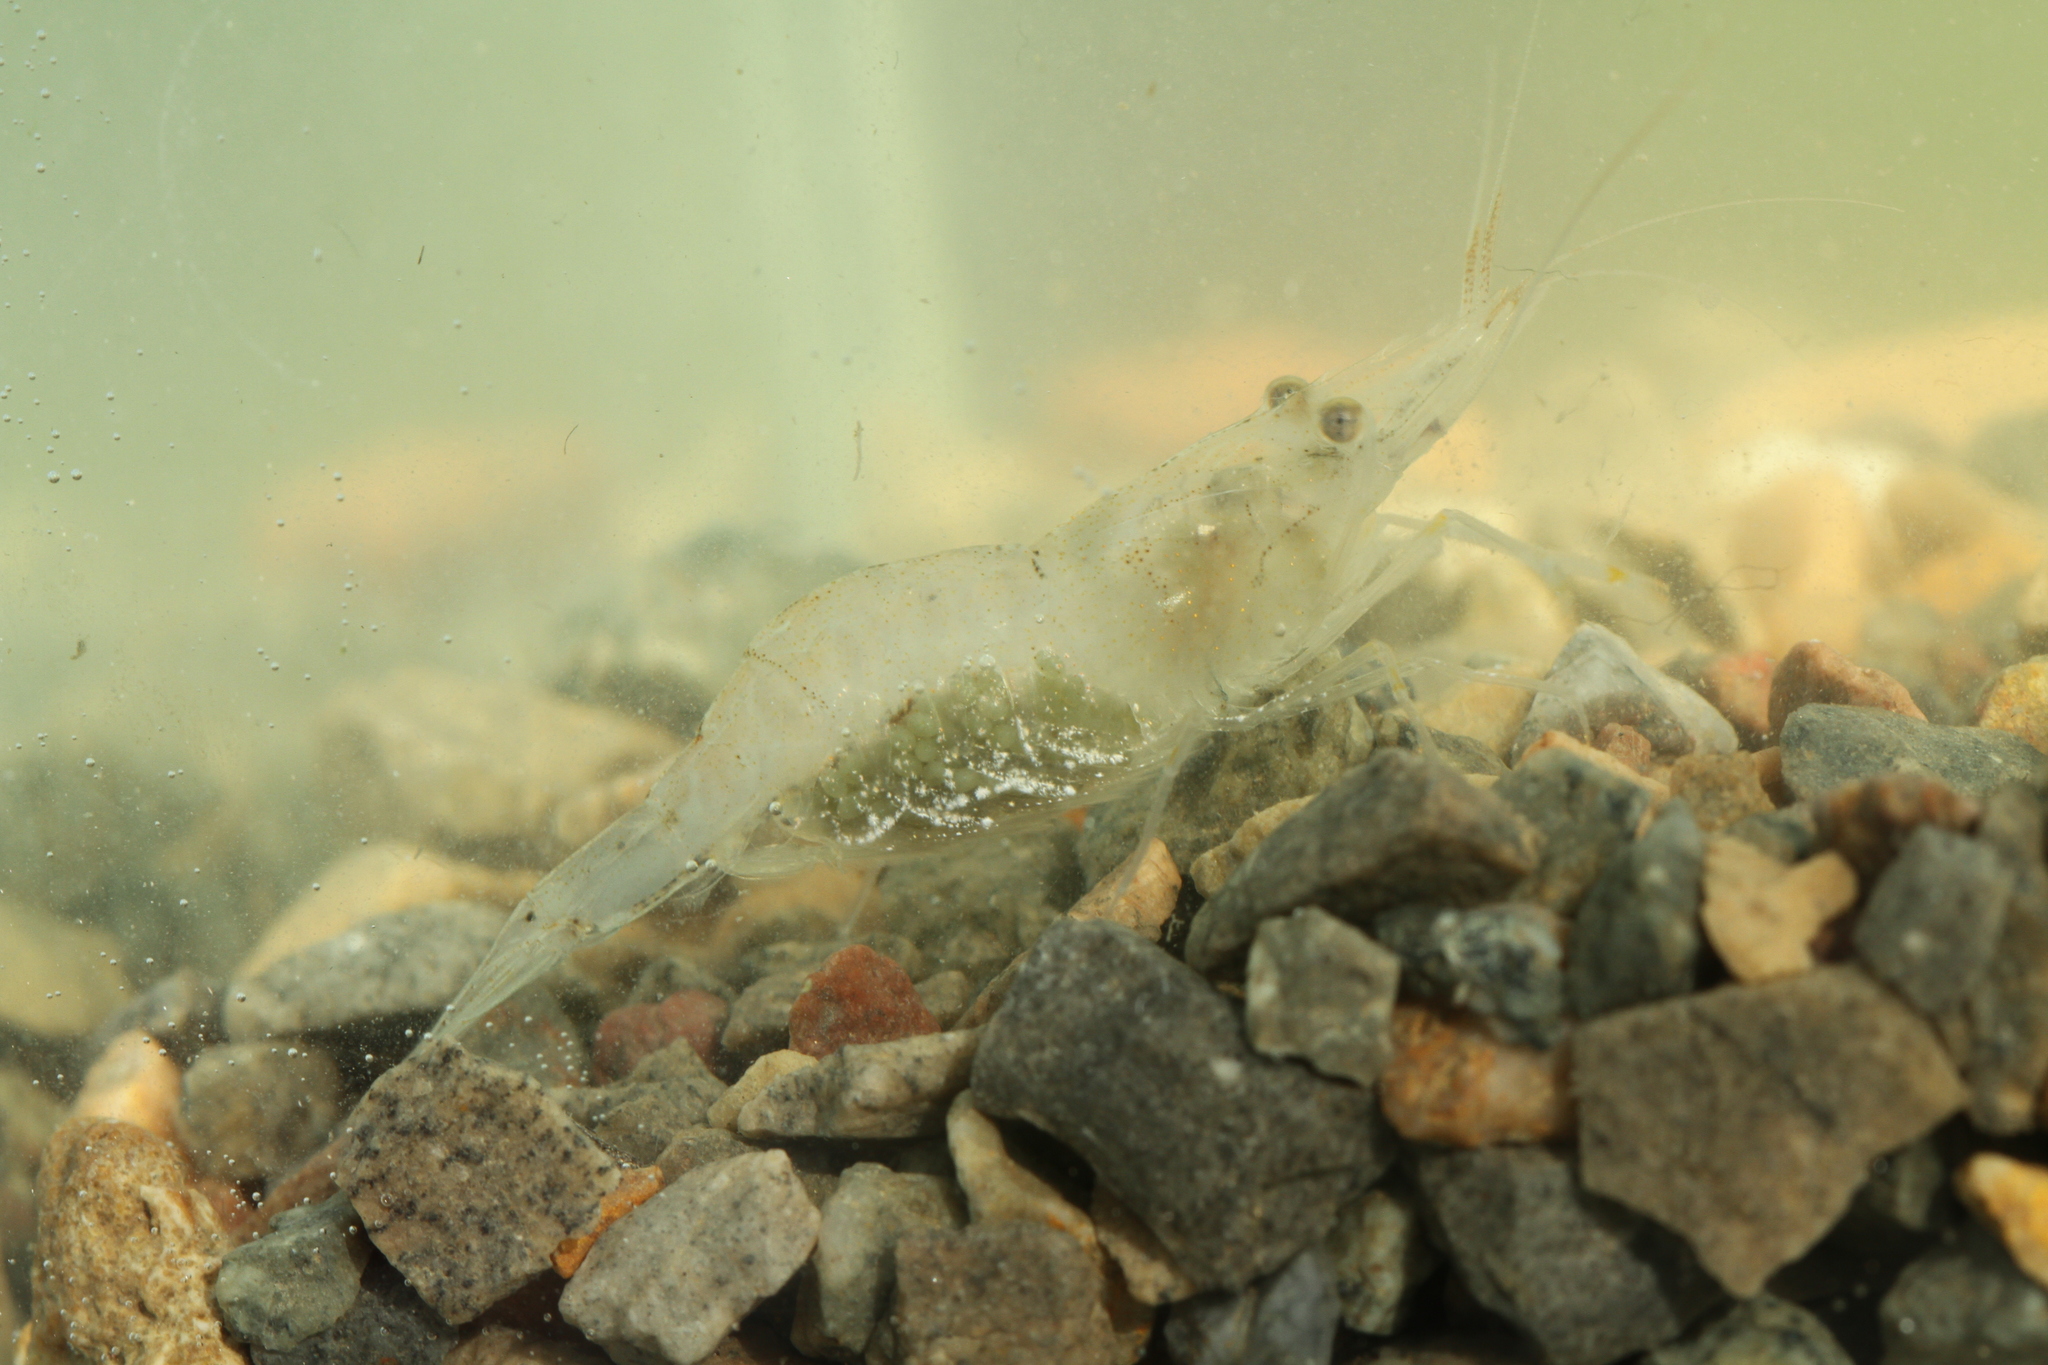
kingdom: Animalia
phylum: Arthropoda
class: Malacostraca
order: Decapoda
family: Palaemonidae
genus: Palaemon
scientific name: Palaemon varians
